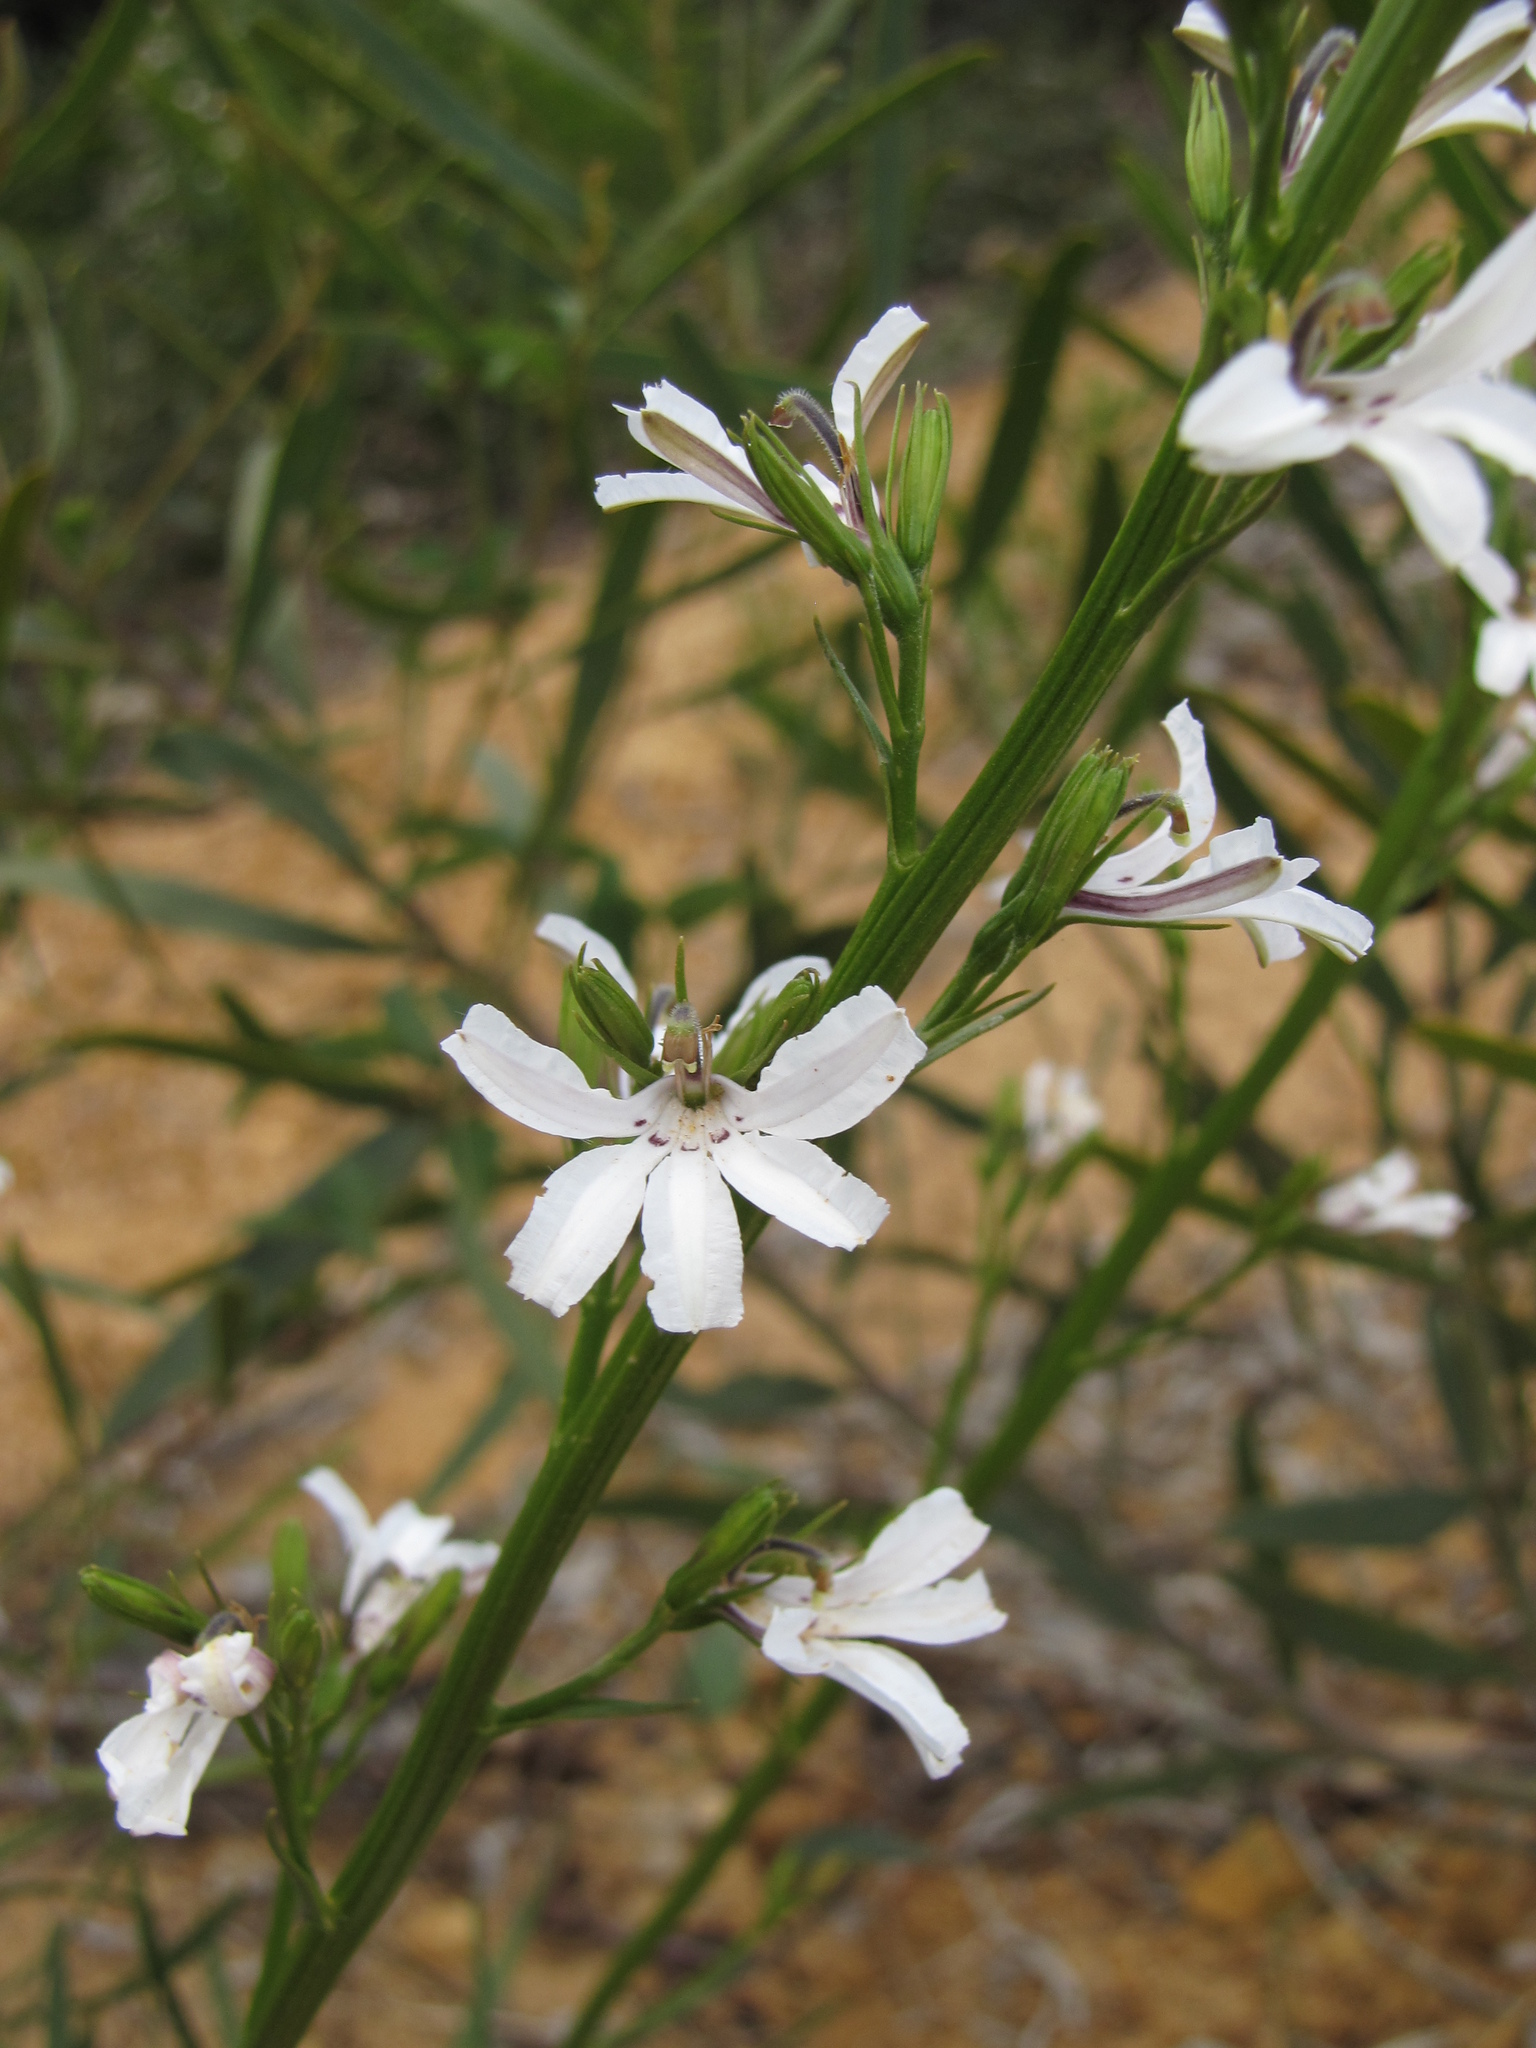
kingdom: Plantae
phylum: Tracheophyta
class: Magnoliopsida
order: Asterales
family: Goodeniaceae
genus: Goodenia
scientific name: Goodenia scapigera
